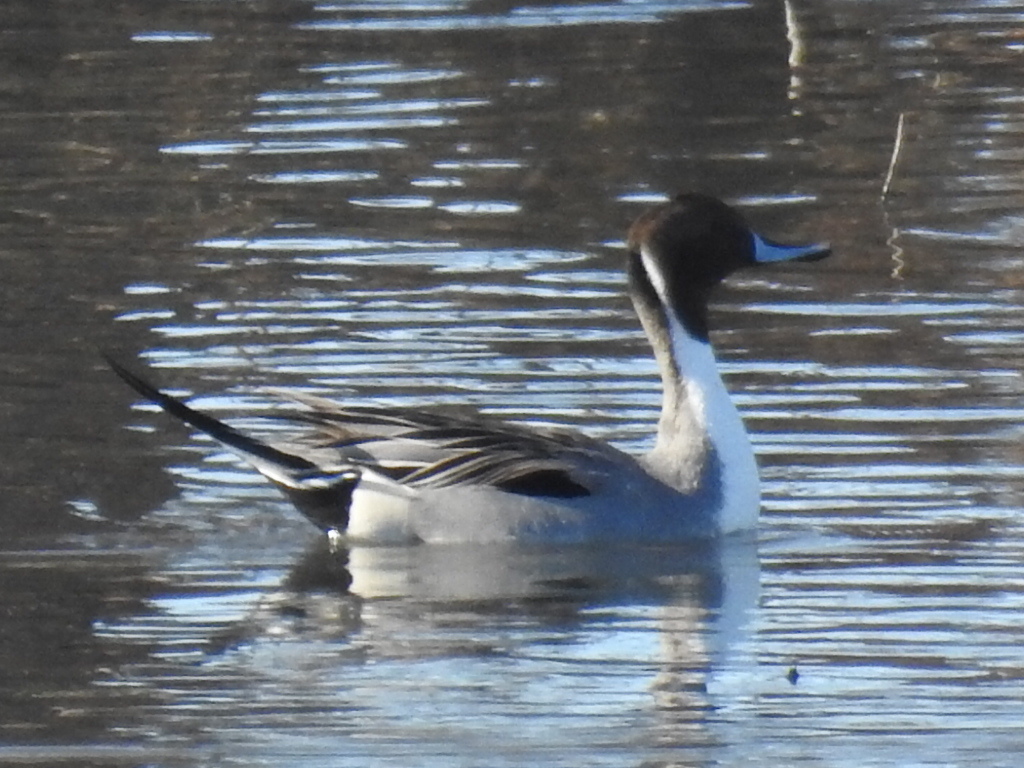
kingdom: Animalia
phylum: Chordata
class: Aves
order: Anseriformes
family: Anatidae
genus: Anas
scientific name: Anas acuta
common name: Northern pintail
